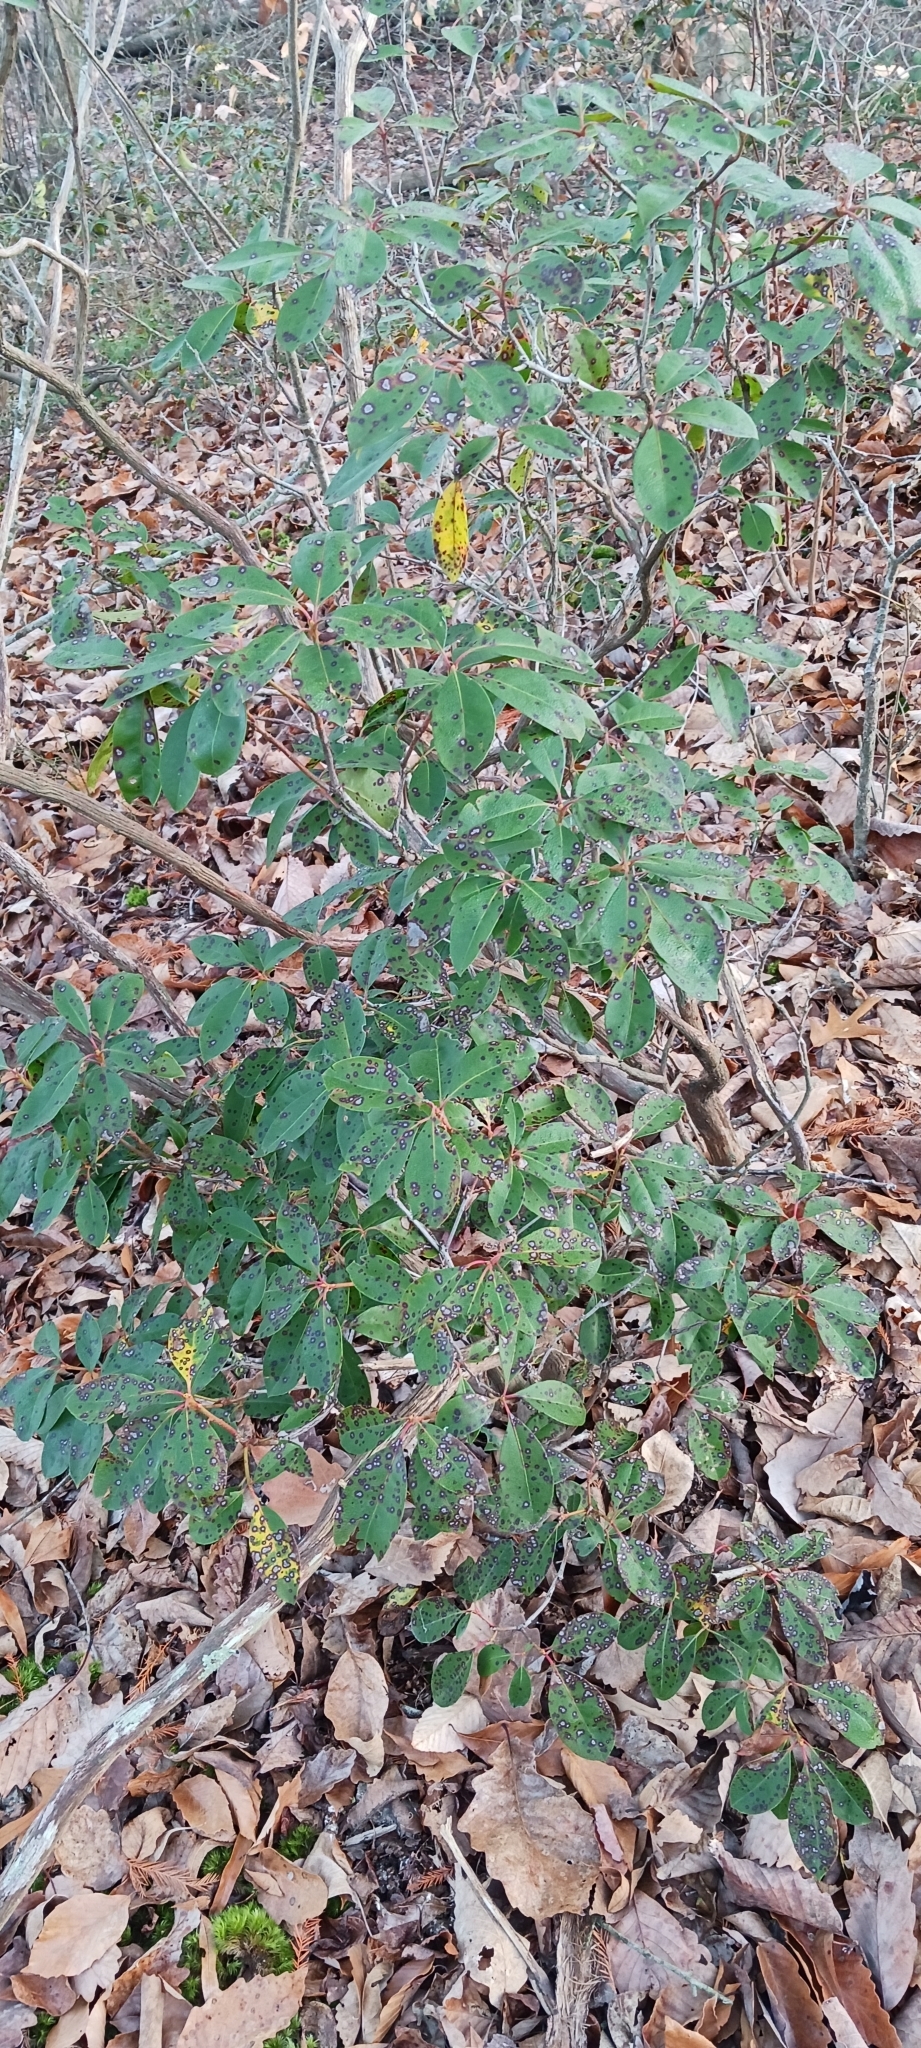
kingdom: Plantae
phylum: Tracheophyta
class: Magnoliopsida
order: Ericales
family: Ericaceae
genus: Kalmia
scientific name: Kalmia latifolia
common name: Mountain-laurel
